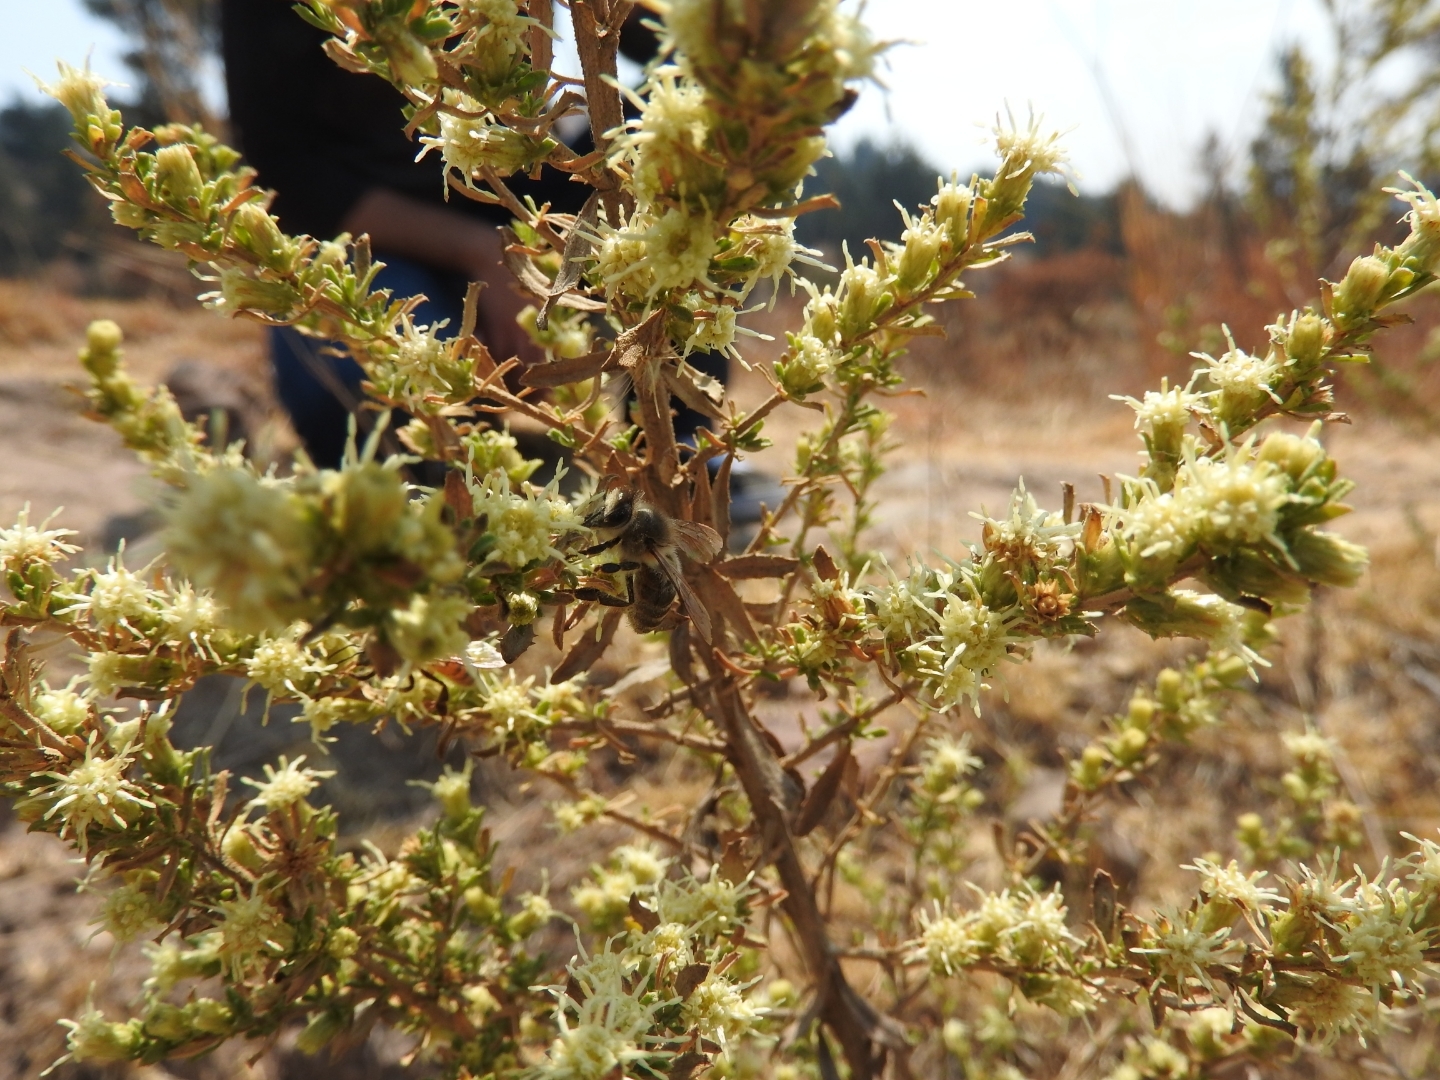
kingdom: Animalia
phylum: Arthropoda
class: Insecta
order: Hymenoptera
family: Apidae
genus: Apis
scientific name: Apis mellifera
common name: Honey bee
